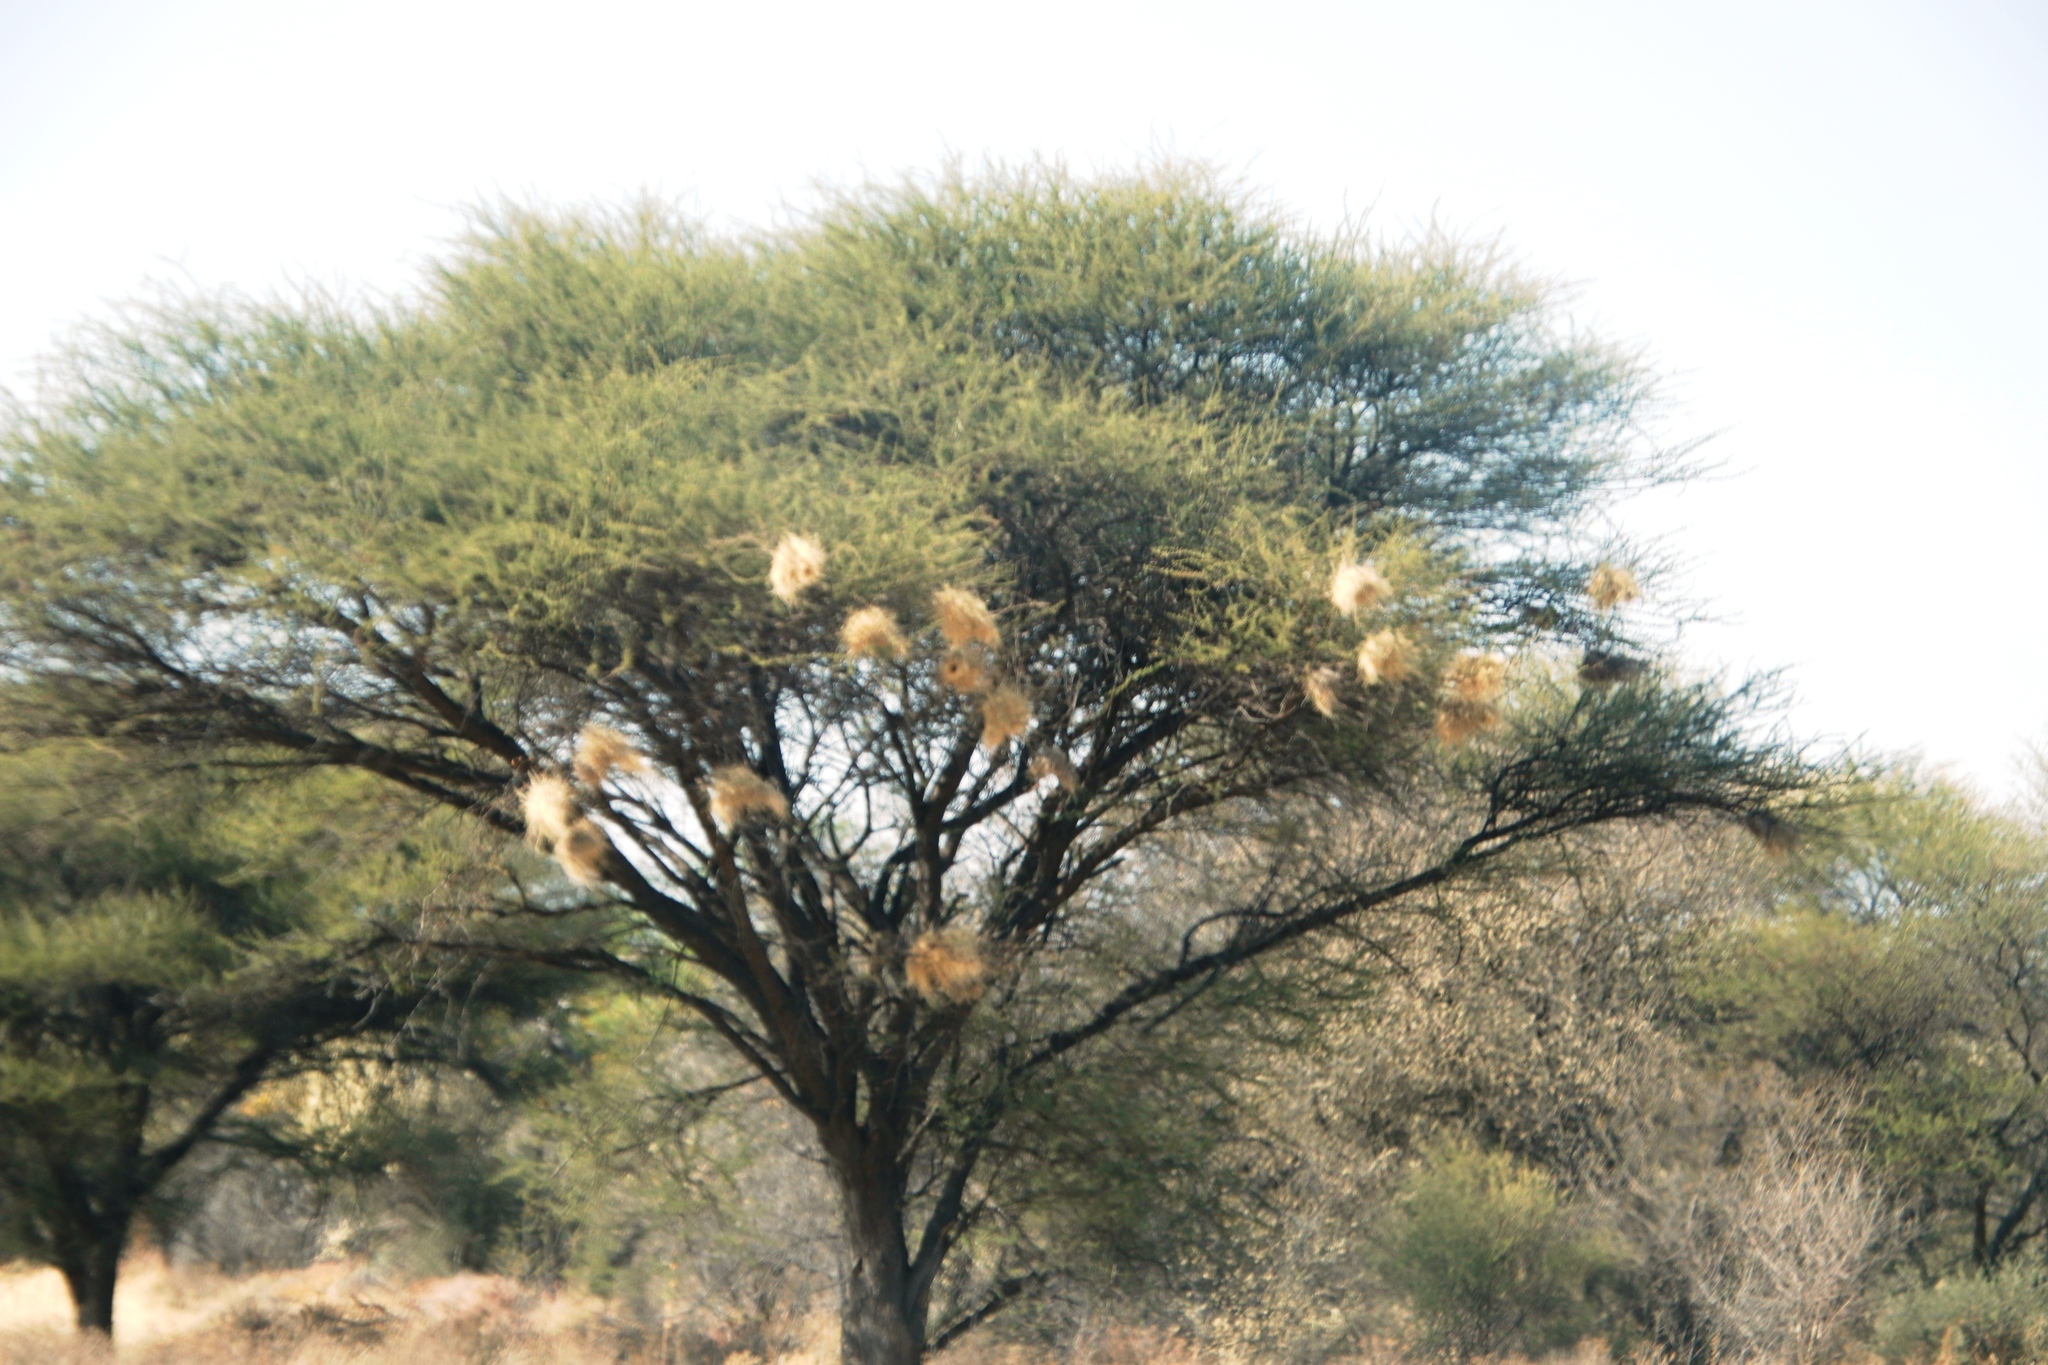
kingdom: Animalia
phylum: Chordata
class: Aves
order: Passeriformes
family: Passeridae
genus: Plocepasser
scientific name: Plocepasser mahali
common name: White-browed sparrow-weaver
